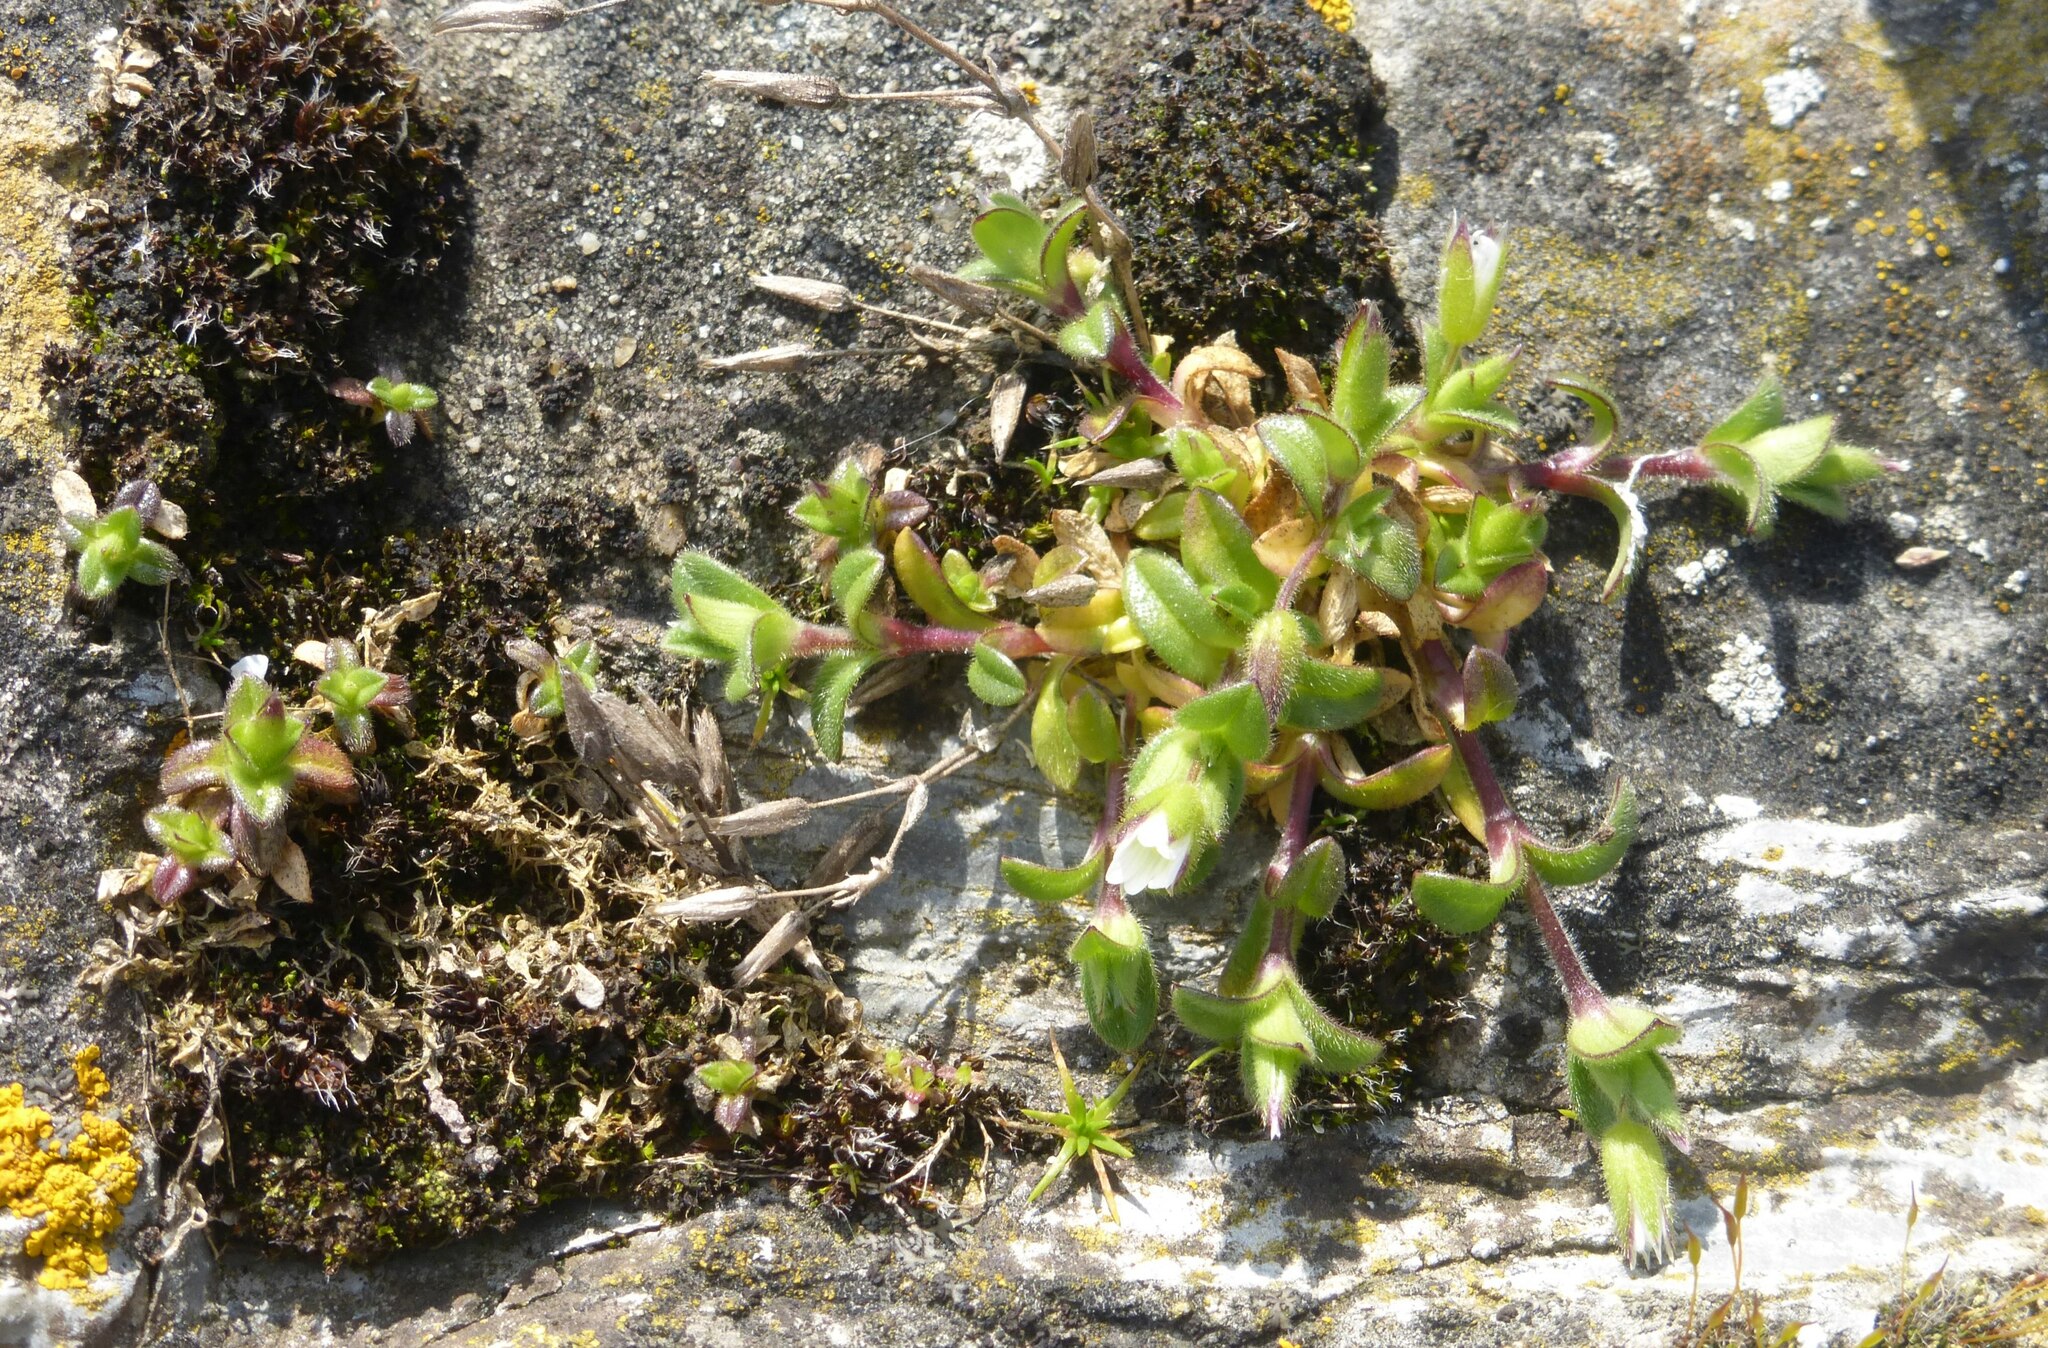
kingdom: Plantae
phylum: Tracheophyta
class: Magnoliopsida
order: Caryophyllales
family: Caryophyllaceae
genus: Cerastium
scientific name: Cerastium semidecandrum
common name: Little mouse-ear
